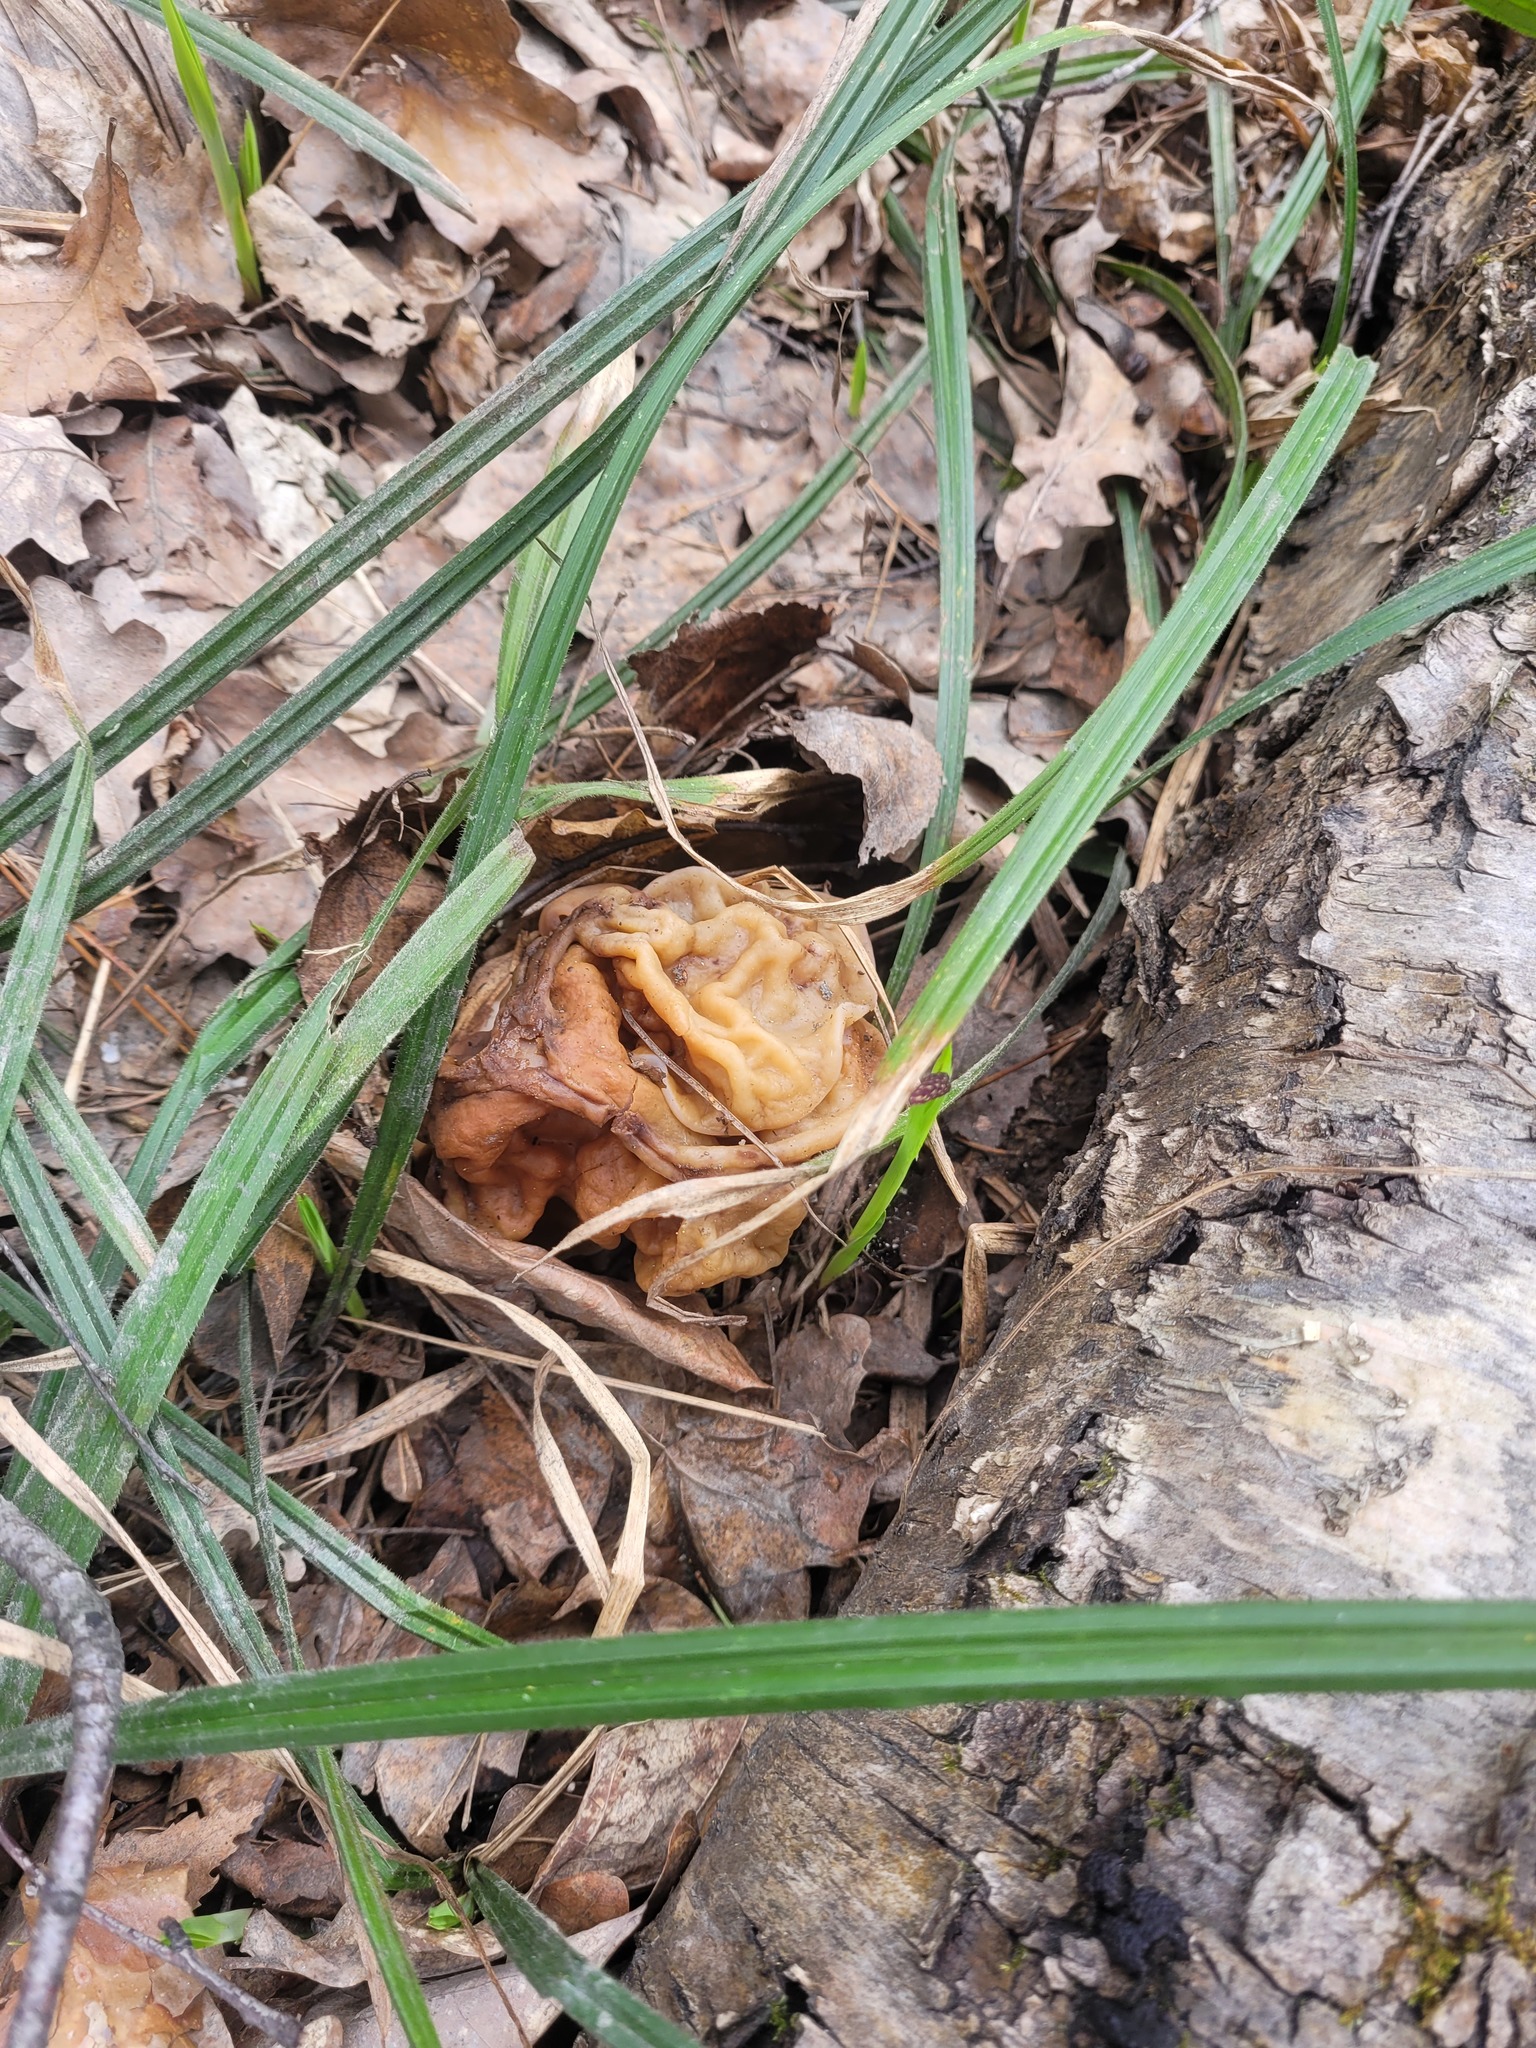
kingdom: Fungi
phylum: Ascomycota
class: Pezizomycetes
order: Pezizales
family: Discinaceae
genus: Gyromitra
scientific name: Gyromitra gigas
